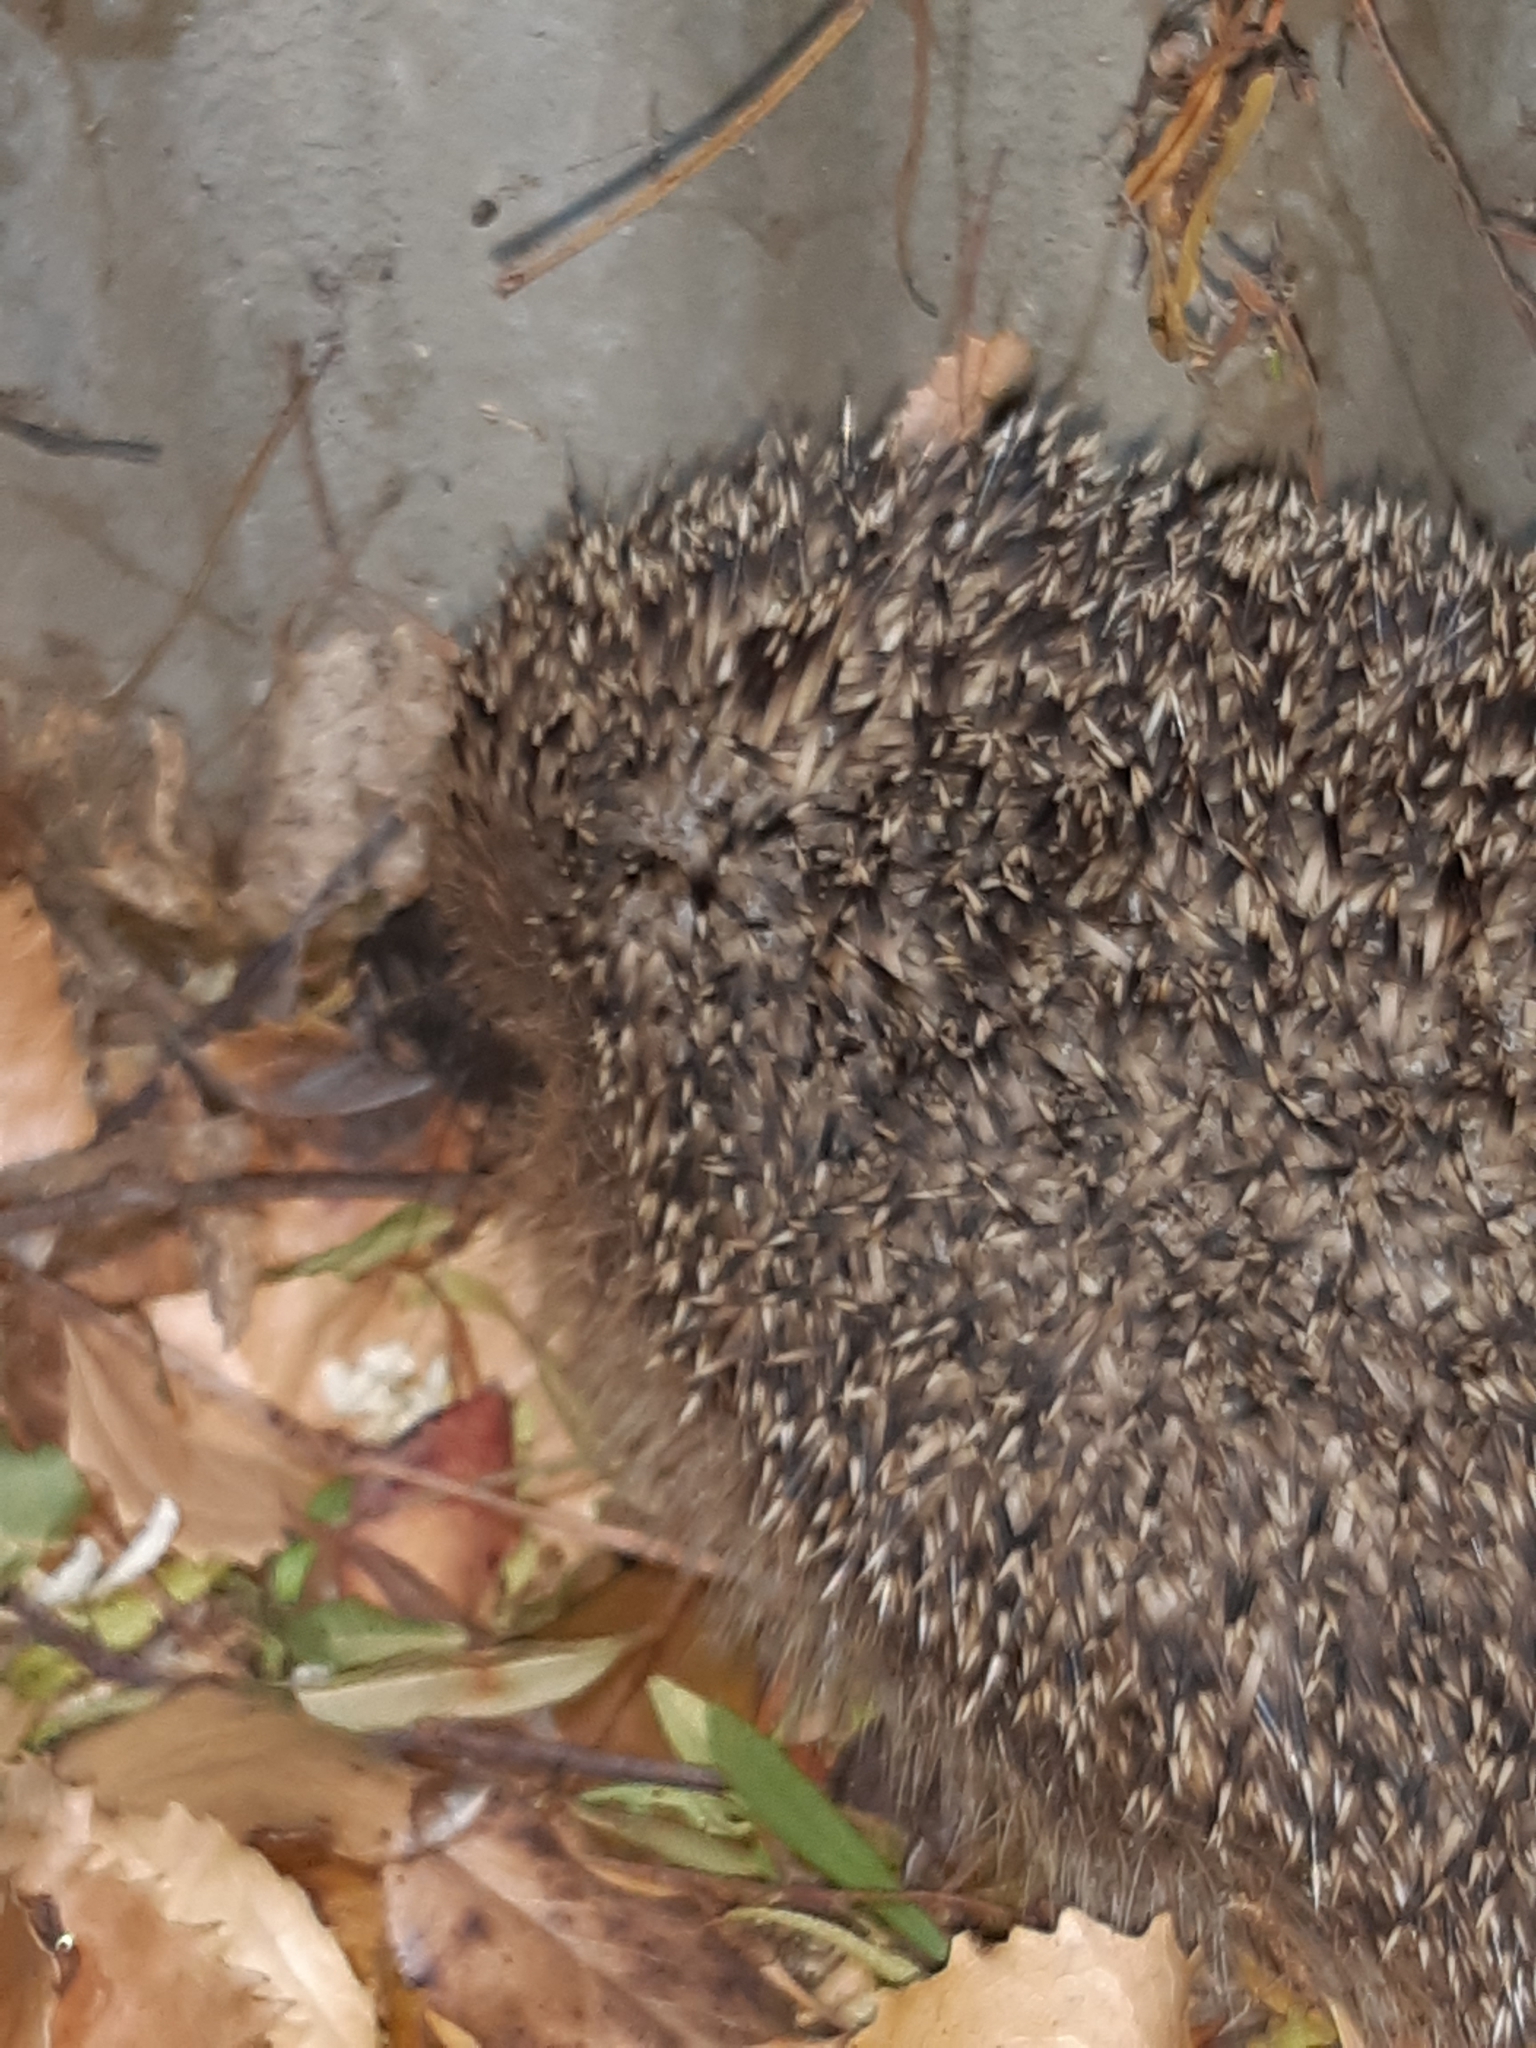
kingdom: Animalia
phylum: Chordata
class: Mammalia
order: Erinaceomorpha
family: Erinaceidae
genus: Erinaceus
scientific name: Erinaceus europaeus
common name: West european hedgehog
